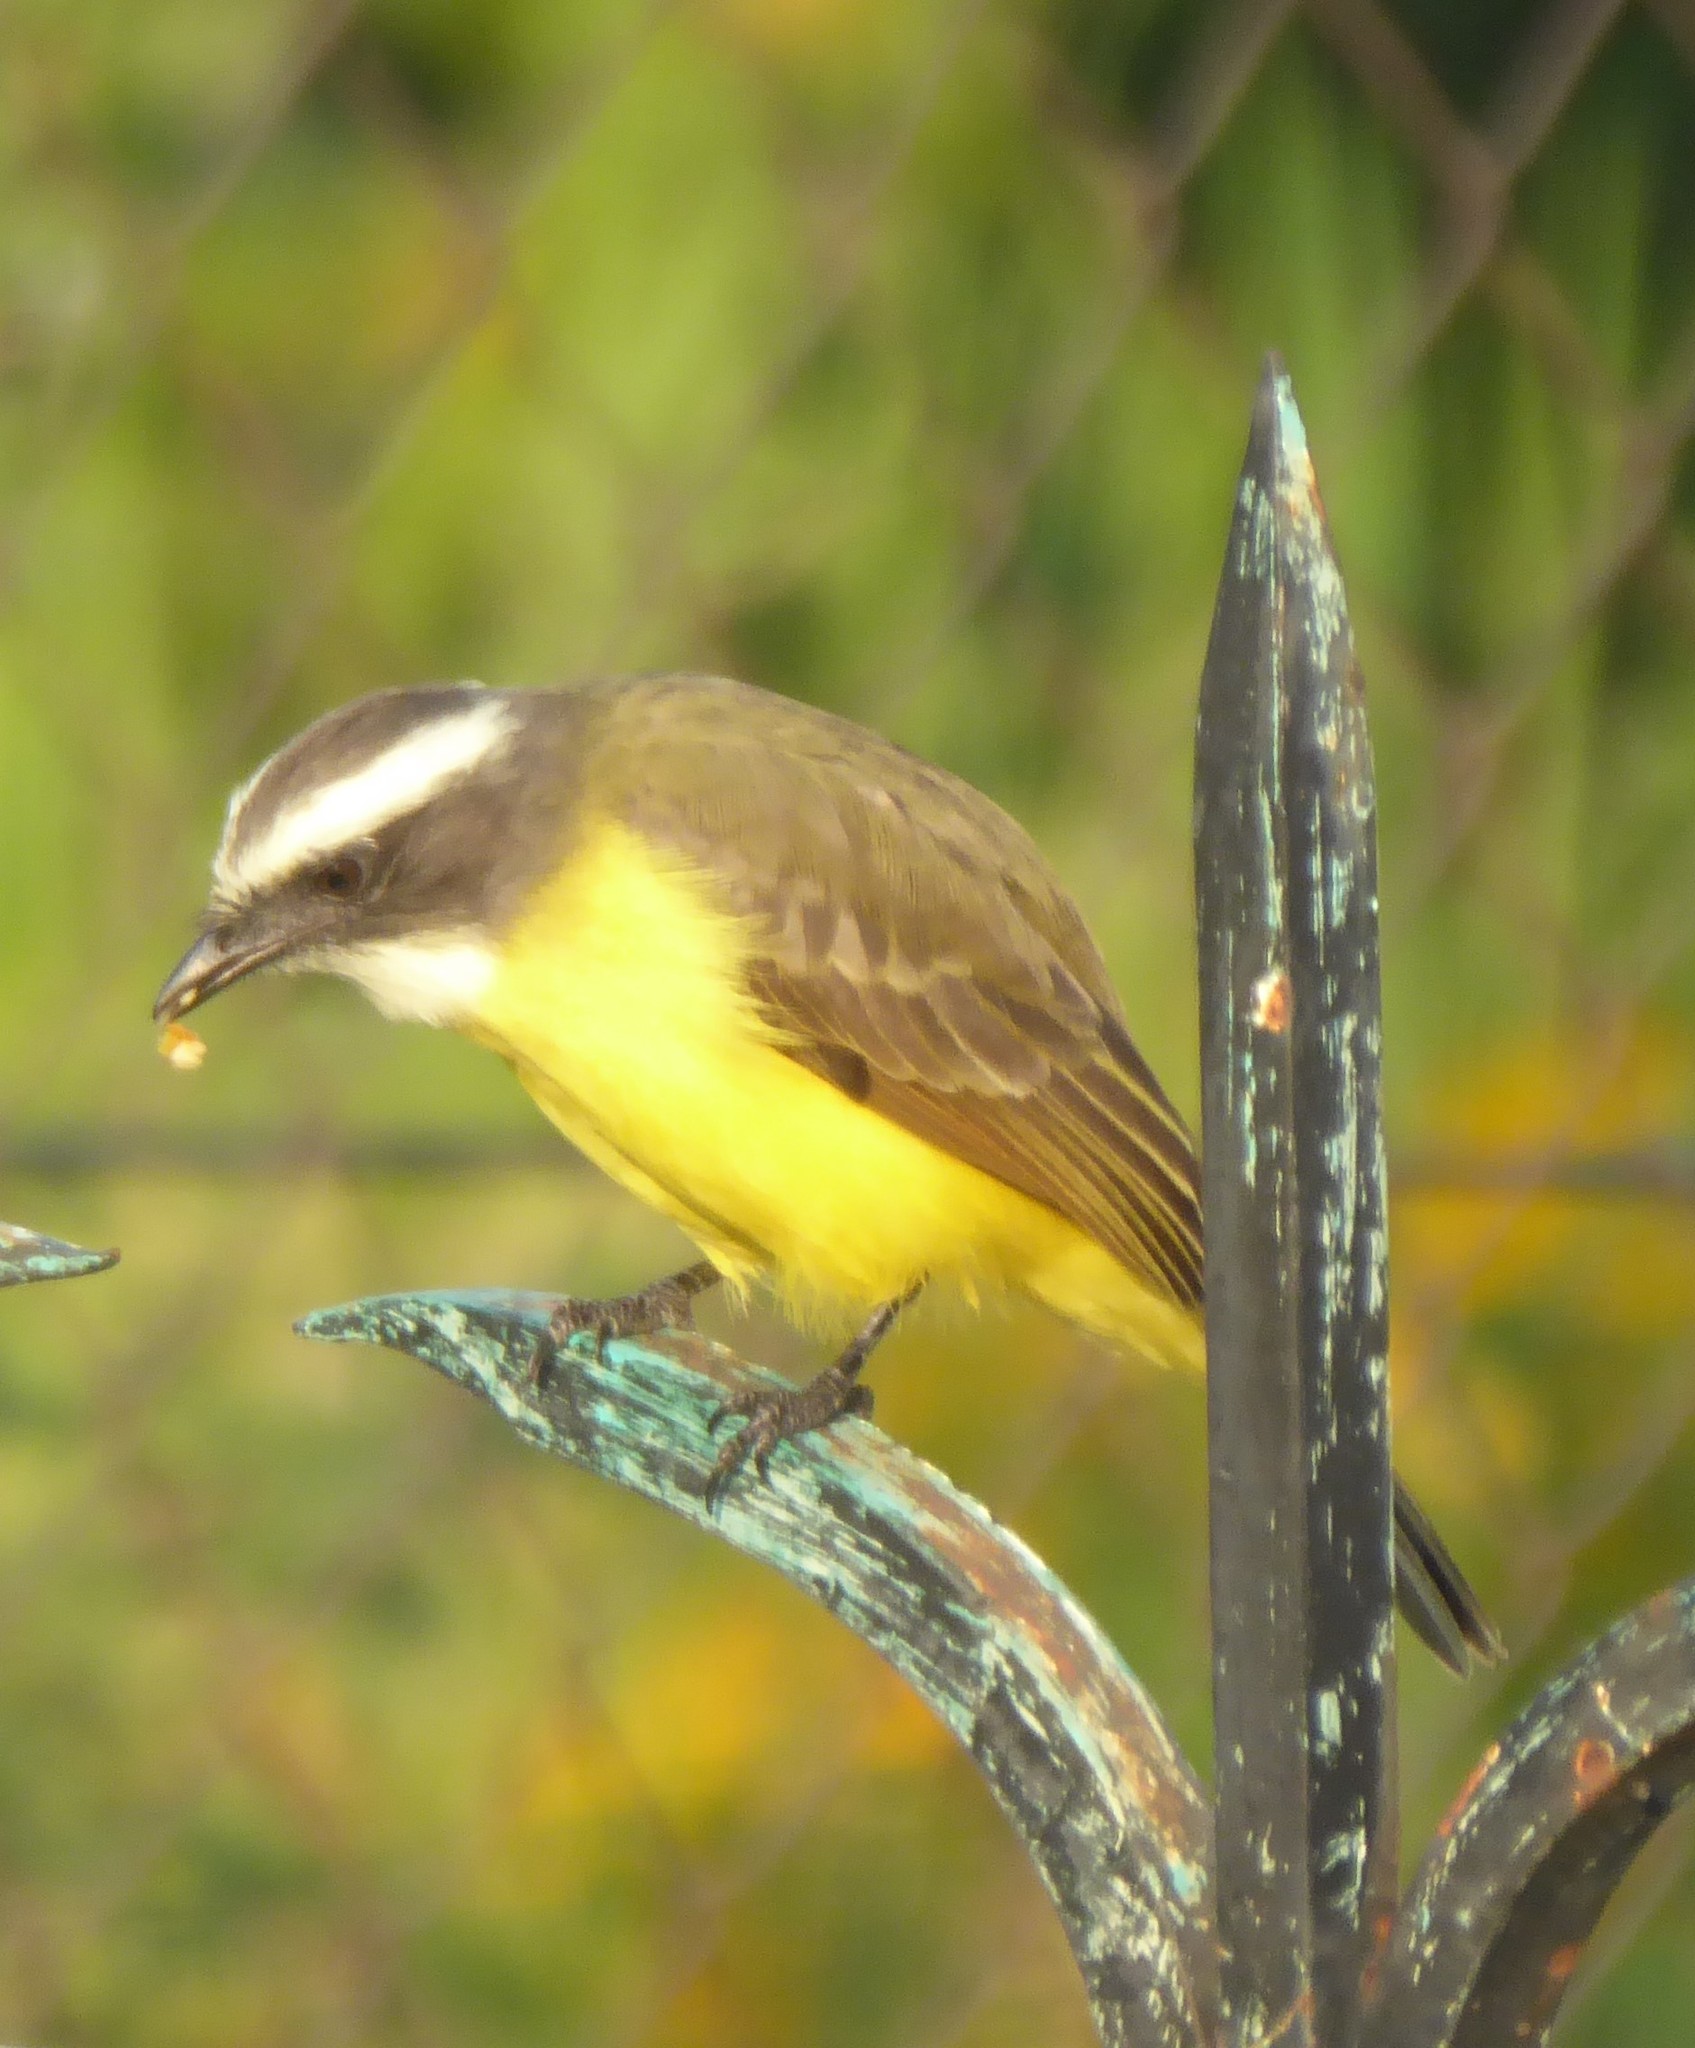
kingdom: Animalia
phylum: Chordata
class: Aves
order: Passeriformes
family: Tyrannidae
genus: Myiozetetes
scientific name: Myiozetetes similis
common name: Social flycatcher
